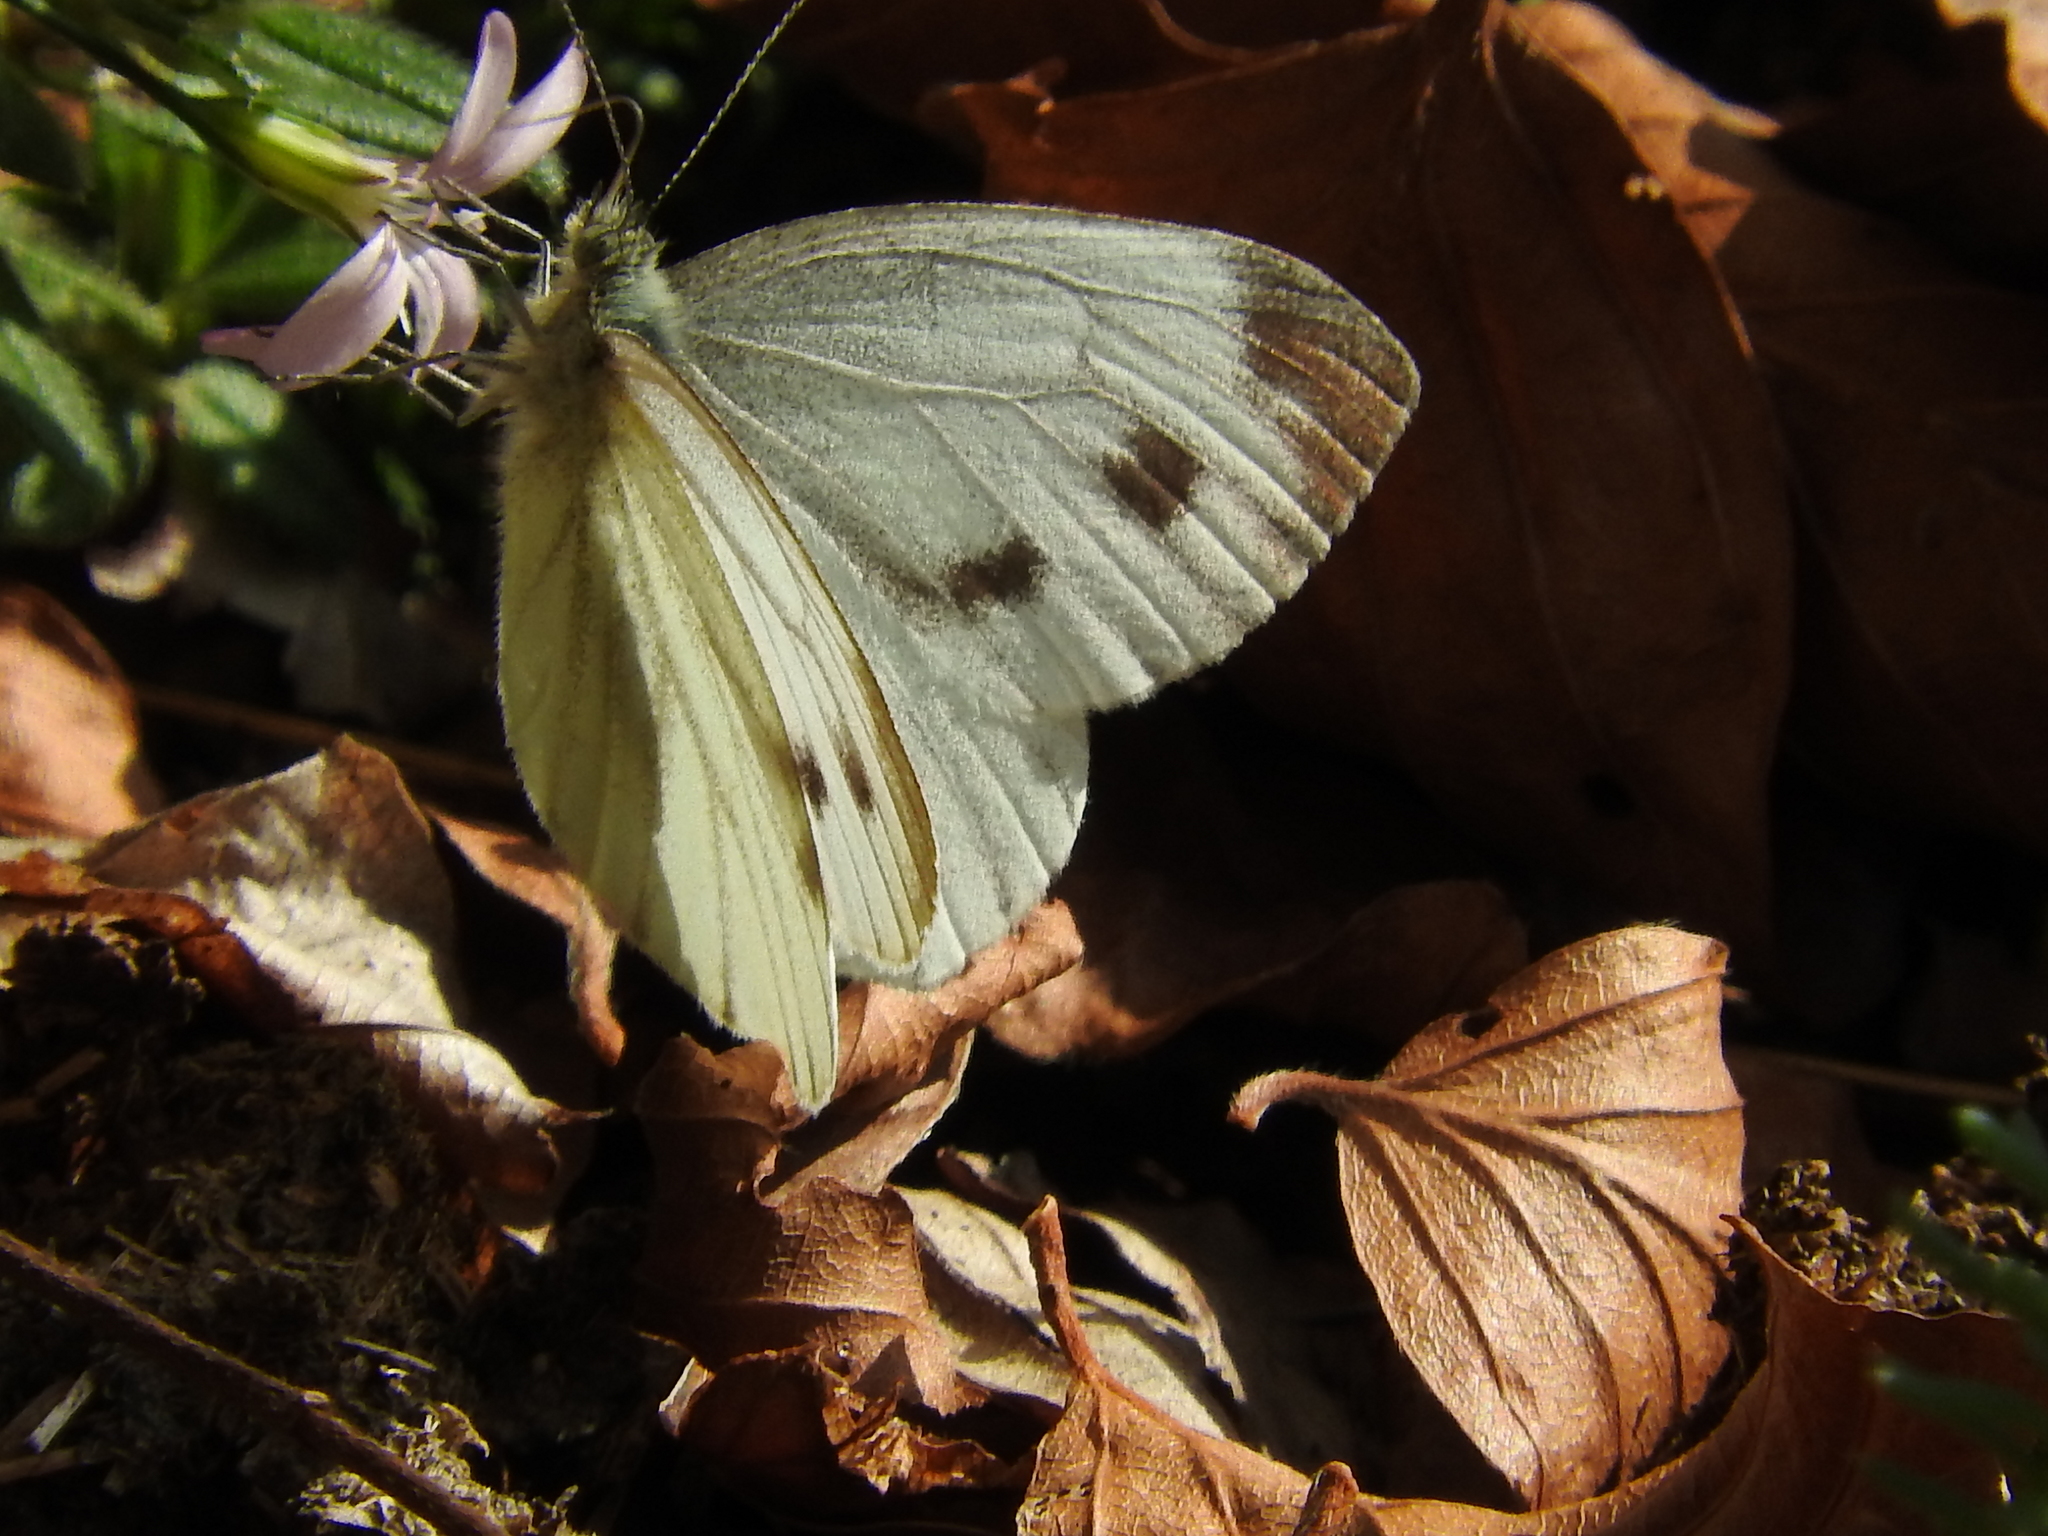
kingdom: Animalia
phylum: Arthropoda
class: Insecta
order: Lepidoptera
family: Pieridae
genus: Pieris
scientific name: Pieris napi
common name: Green-veined white
